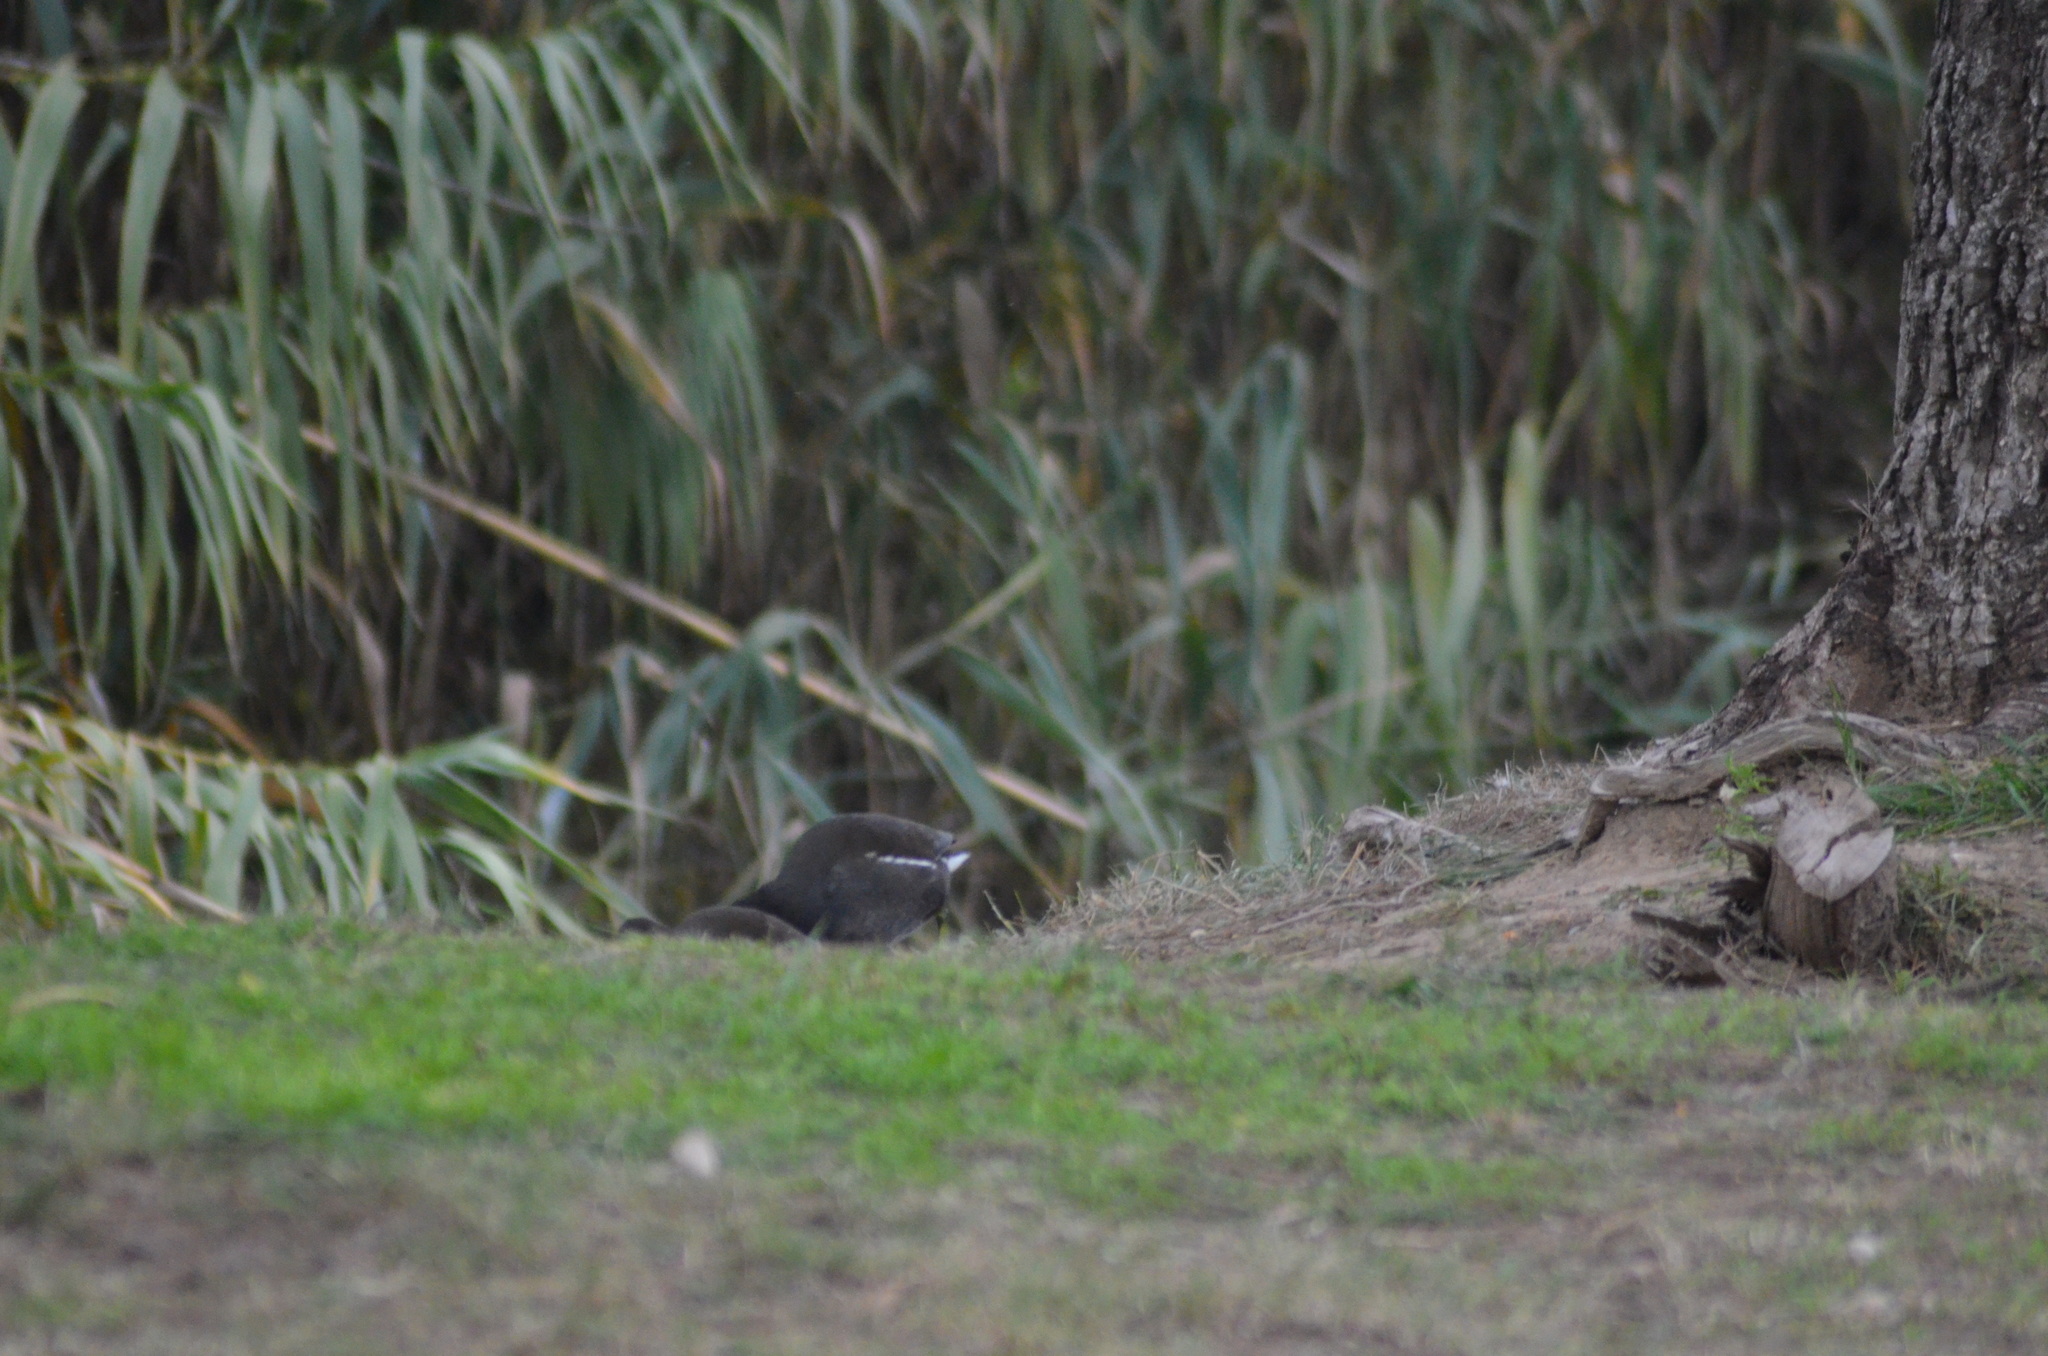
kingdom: Animalia
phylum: Chordata
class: Aves
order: Gruiformes
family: Rallidae
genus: Gallinula
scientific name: Gallinula chloropus
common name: Common moorhen
